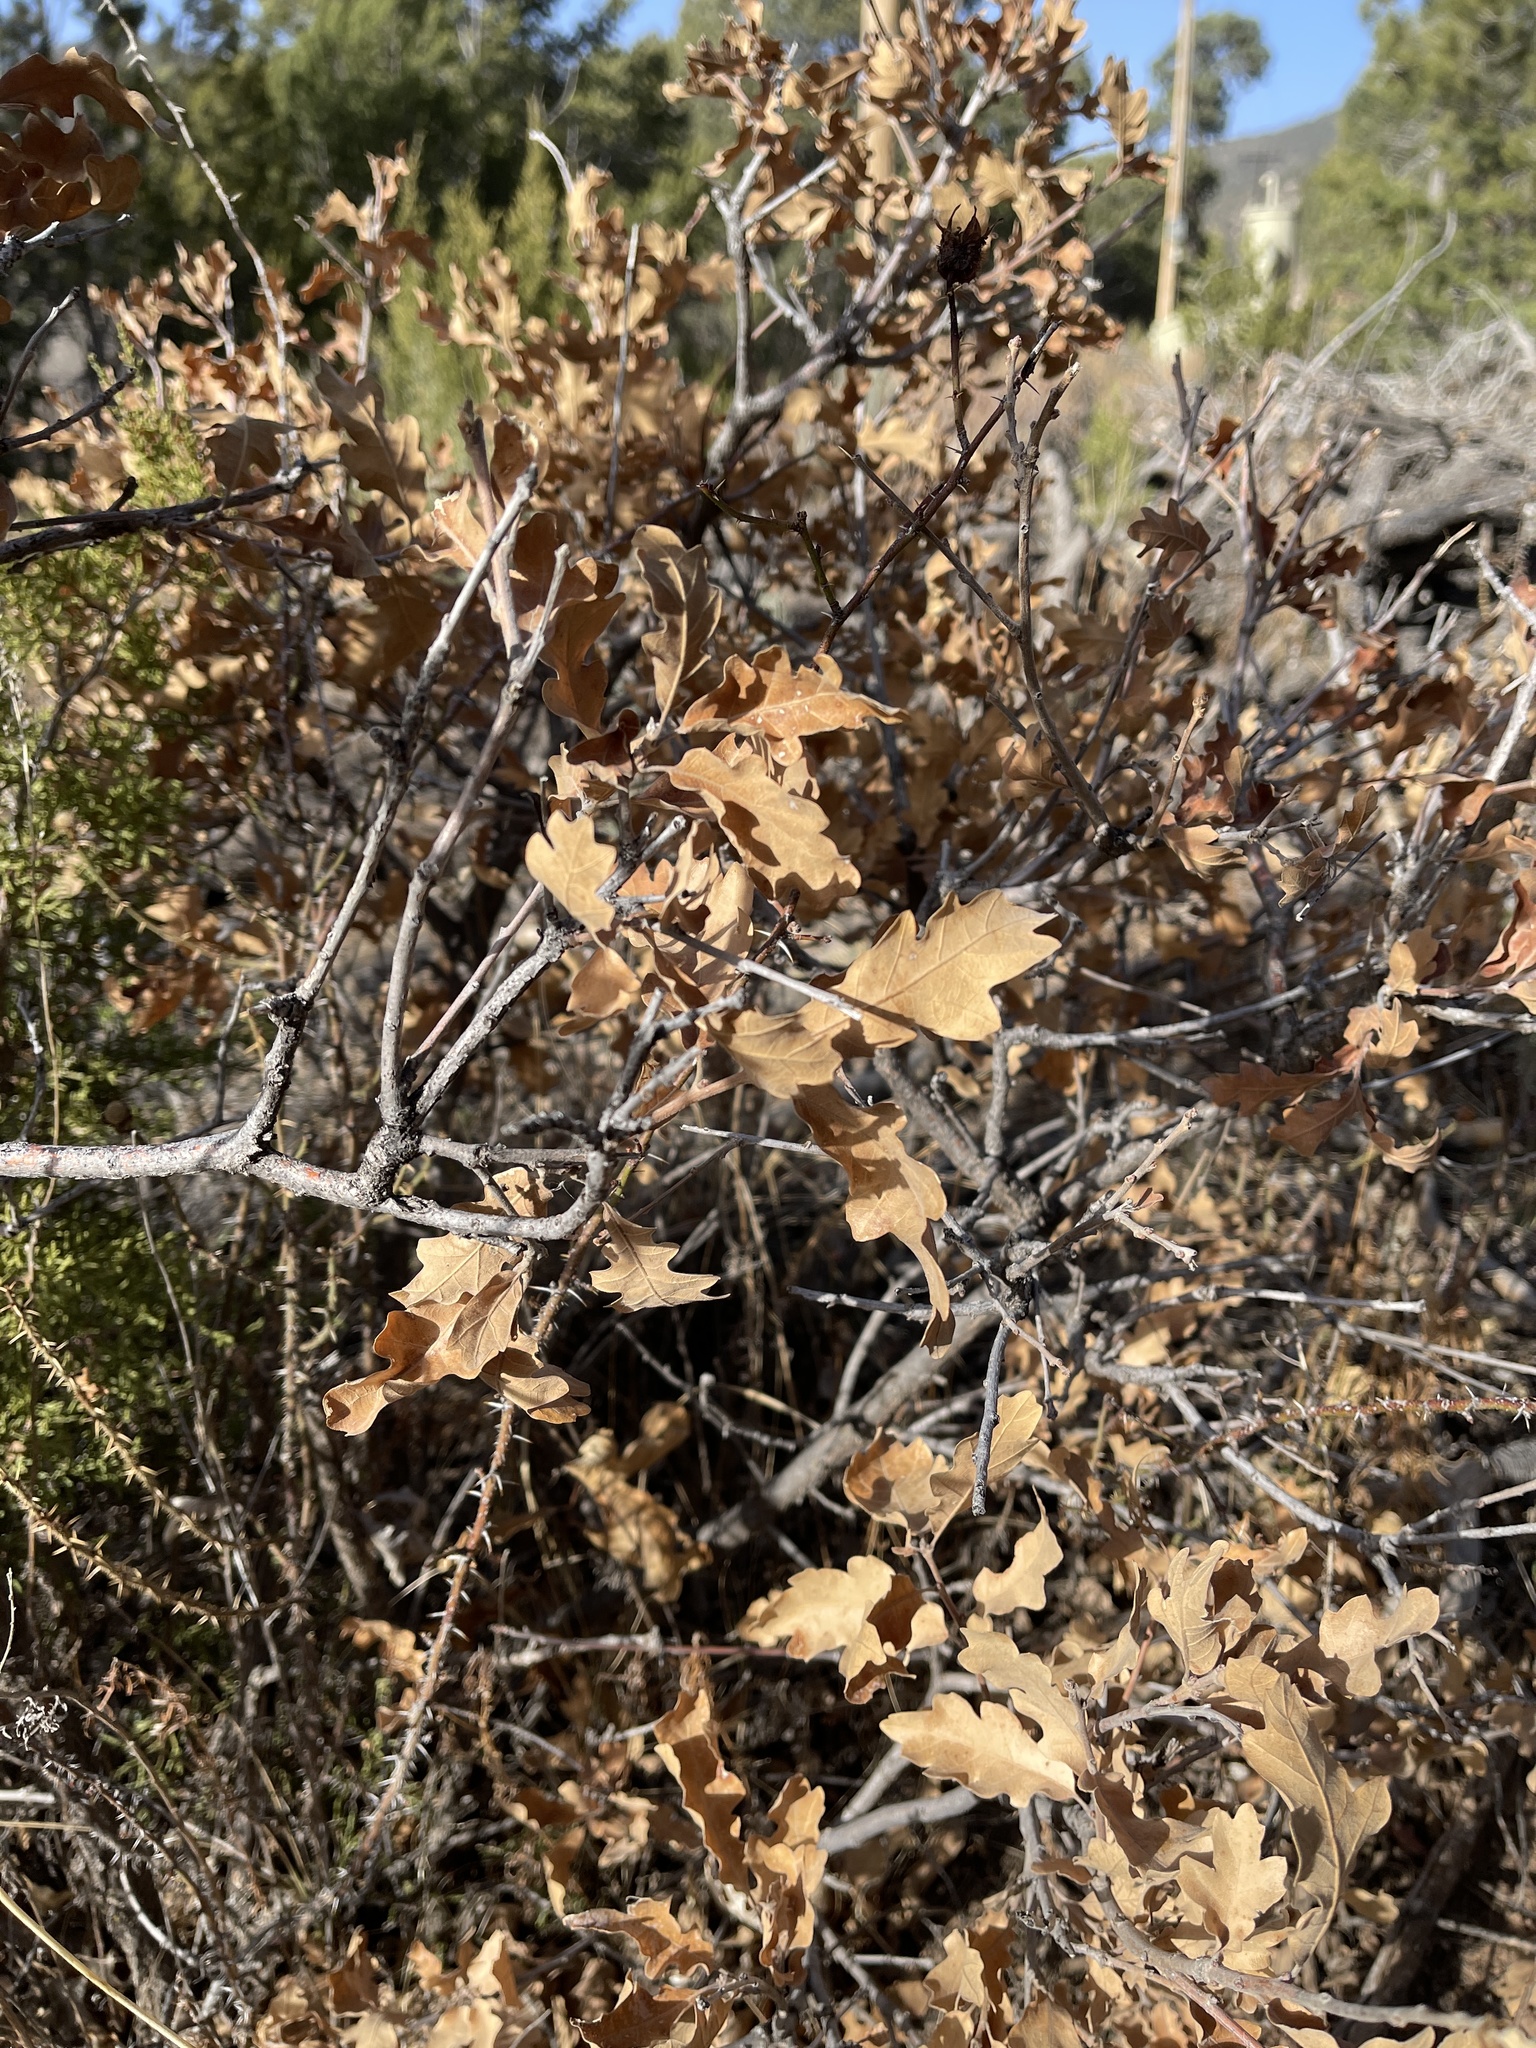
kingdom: Plantae
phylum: Tracheophyta
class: Magnoliopsida
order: Fagales
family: Fagaceae
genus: Quercus
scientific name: Quercus gambelii
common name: Gambel oak
